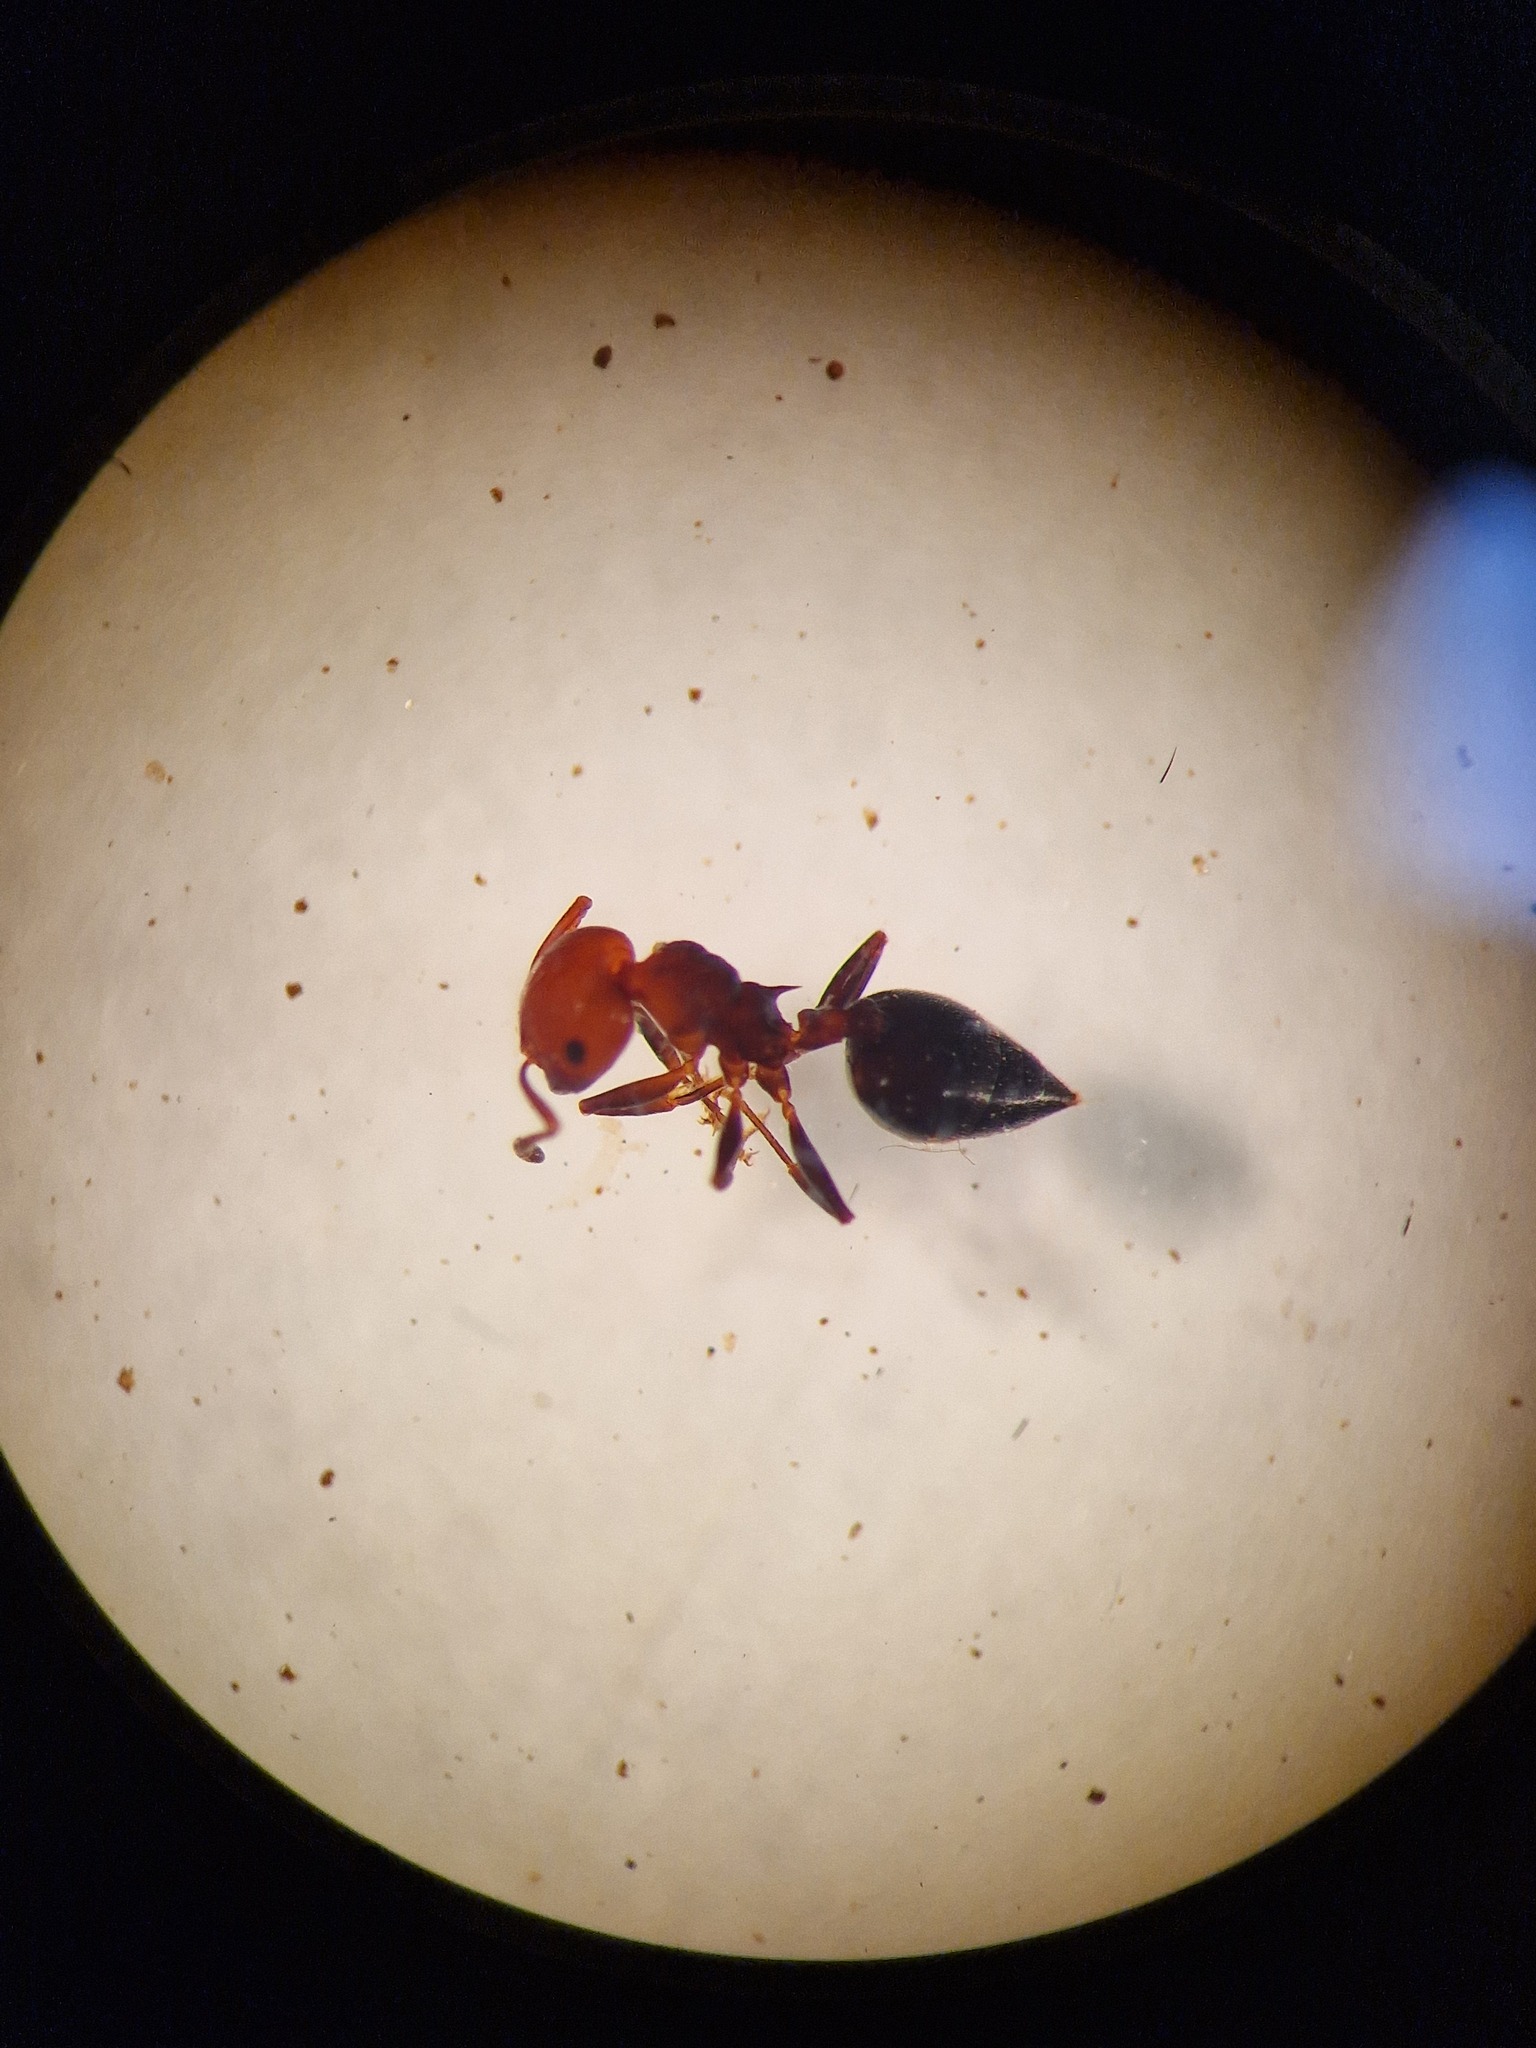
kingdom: Animalia
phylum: Arthropoda
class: Insecta
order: Hymenoptera
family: Formicidae
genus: Crematogaster
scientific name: Crematogaster scutellaris
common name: Fourmi du liège
